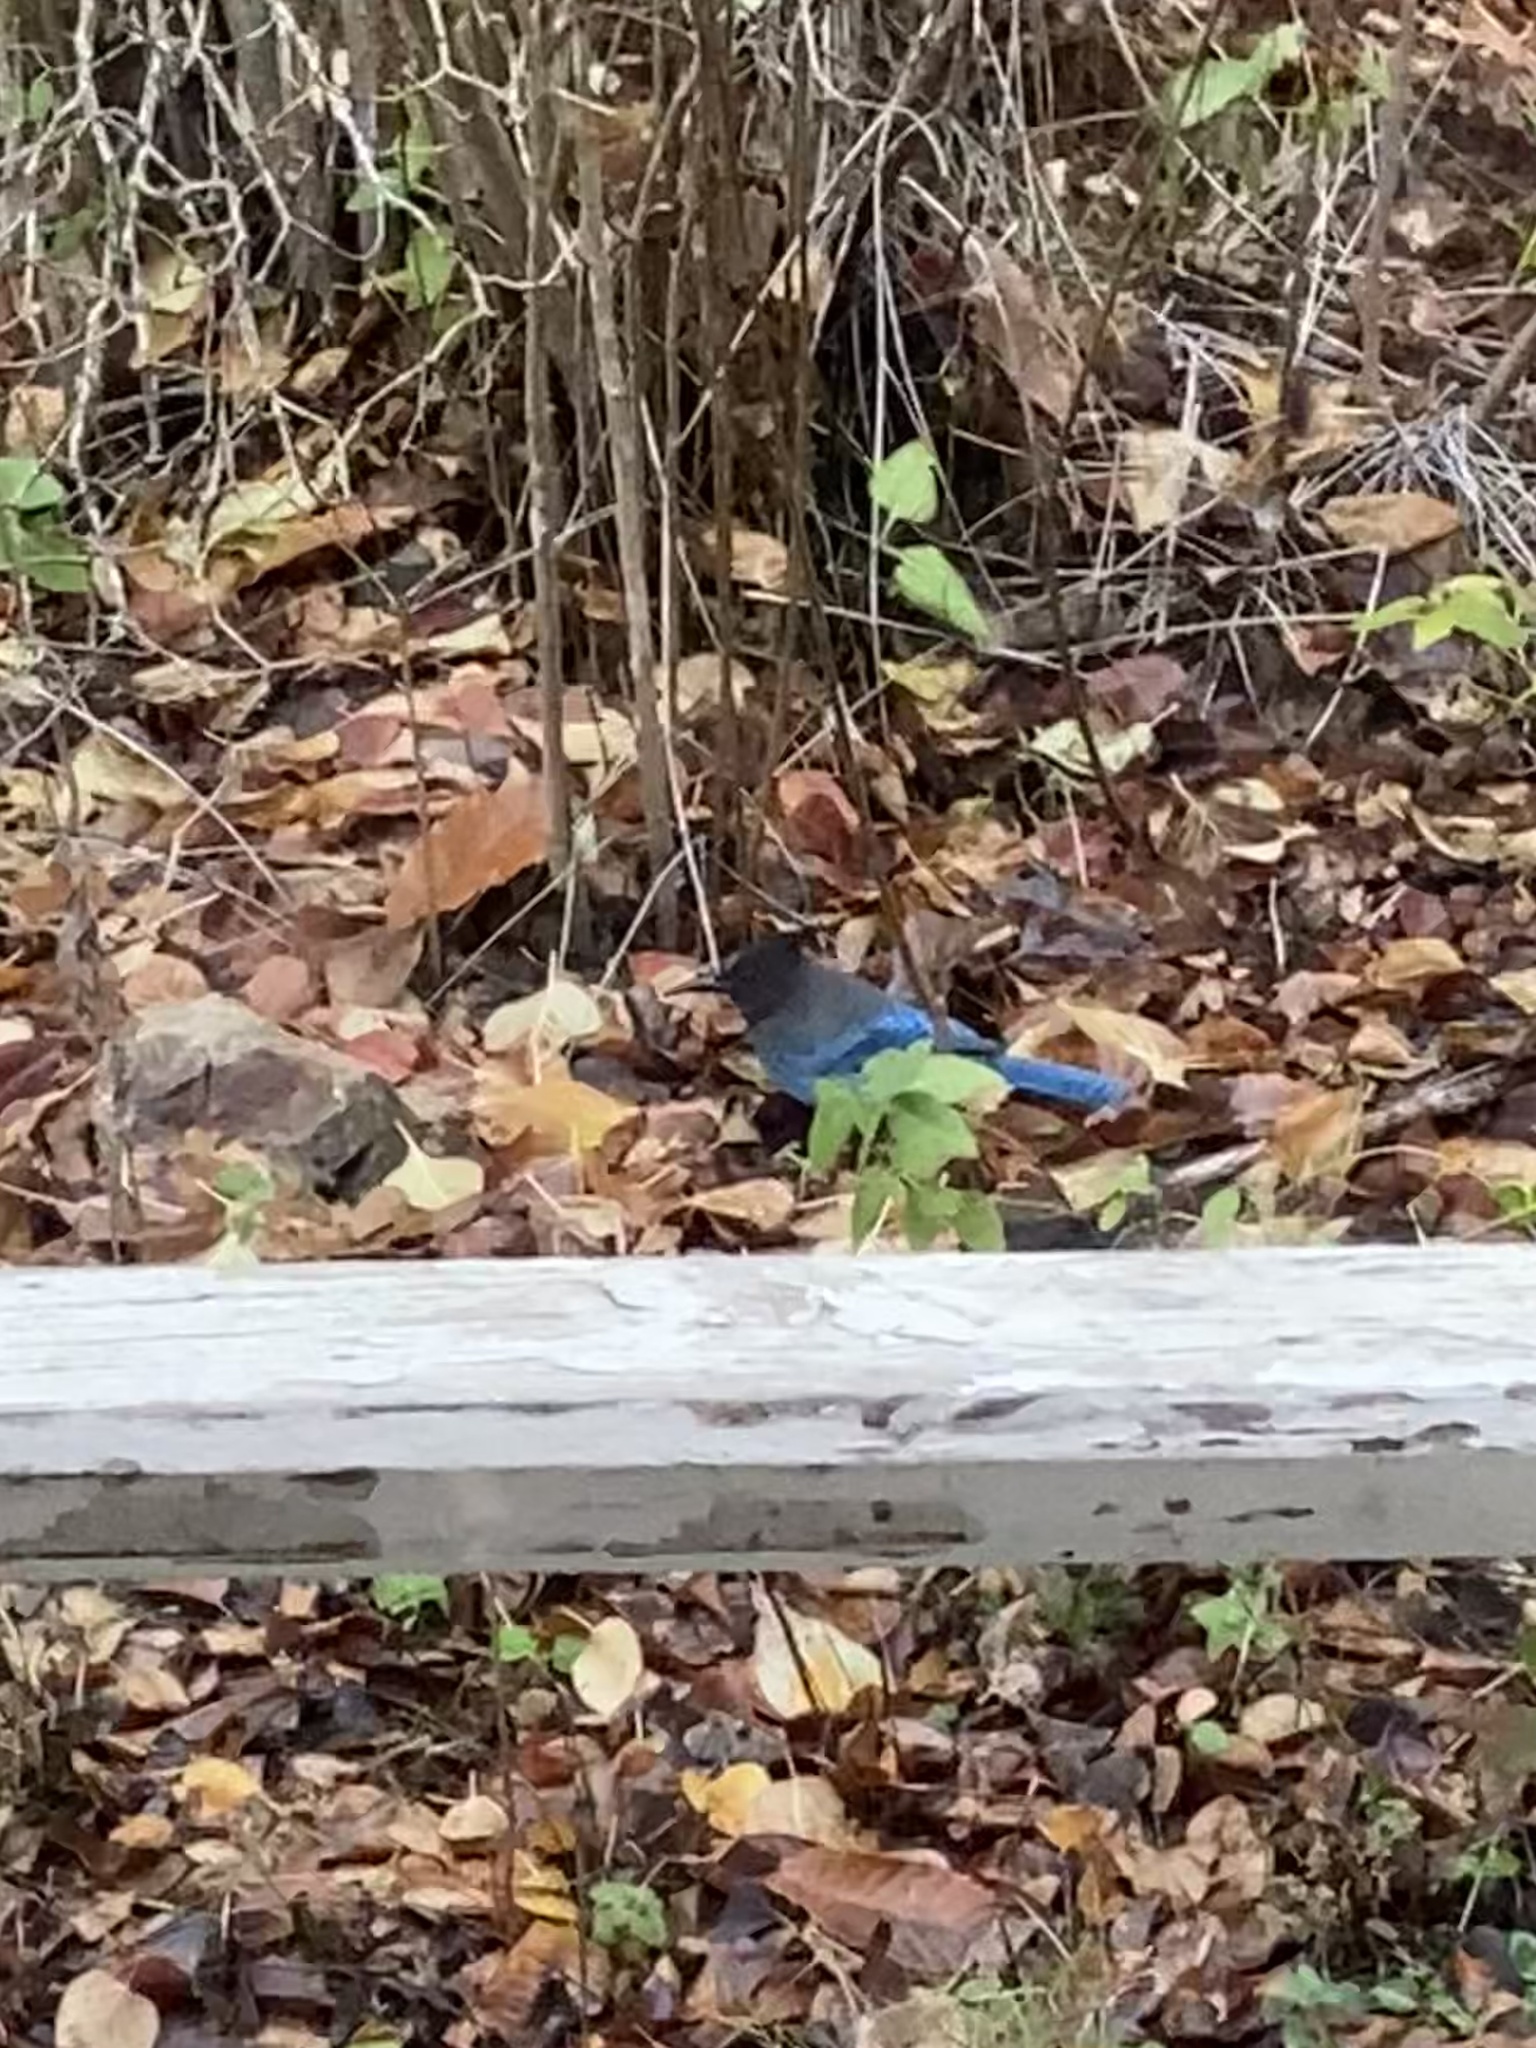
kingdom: Animalia
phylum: Chordata
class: Aves
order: Passeriformes
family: Corvidae
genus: Cyanocitta
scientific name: Cyanocitta stelleri
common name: Steller's jay
